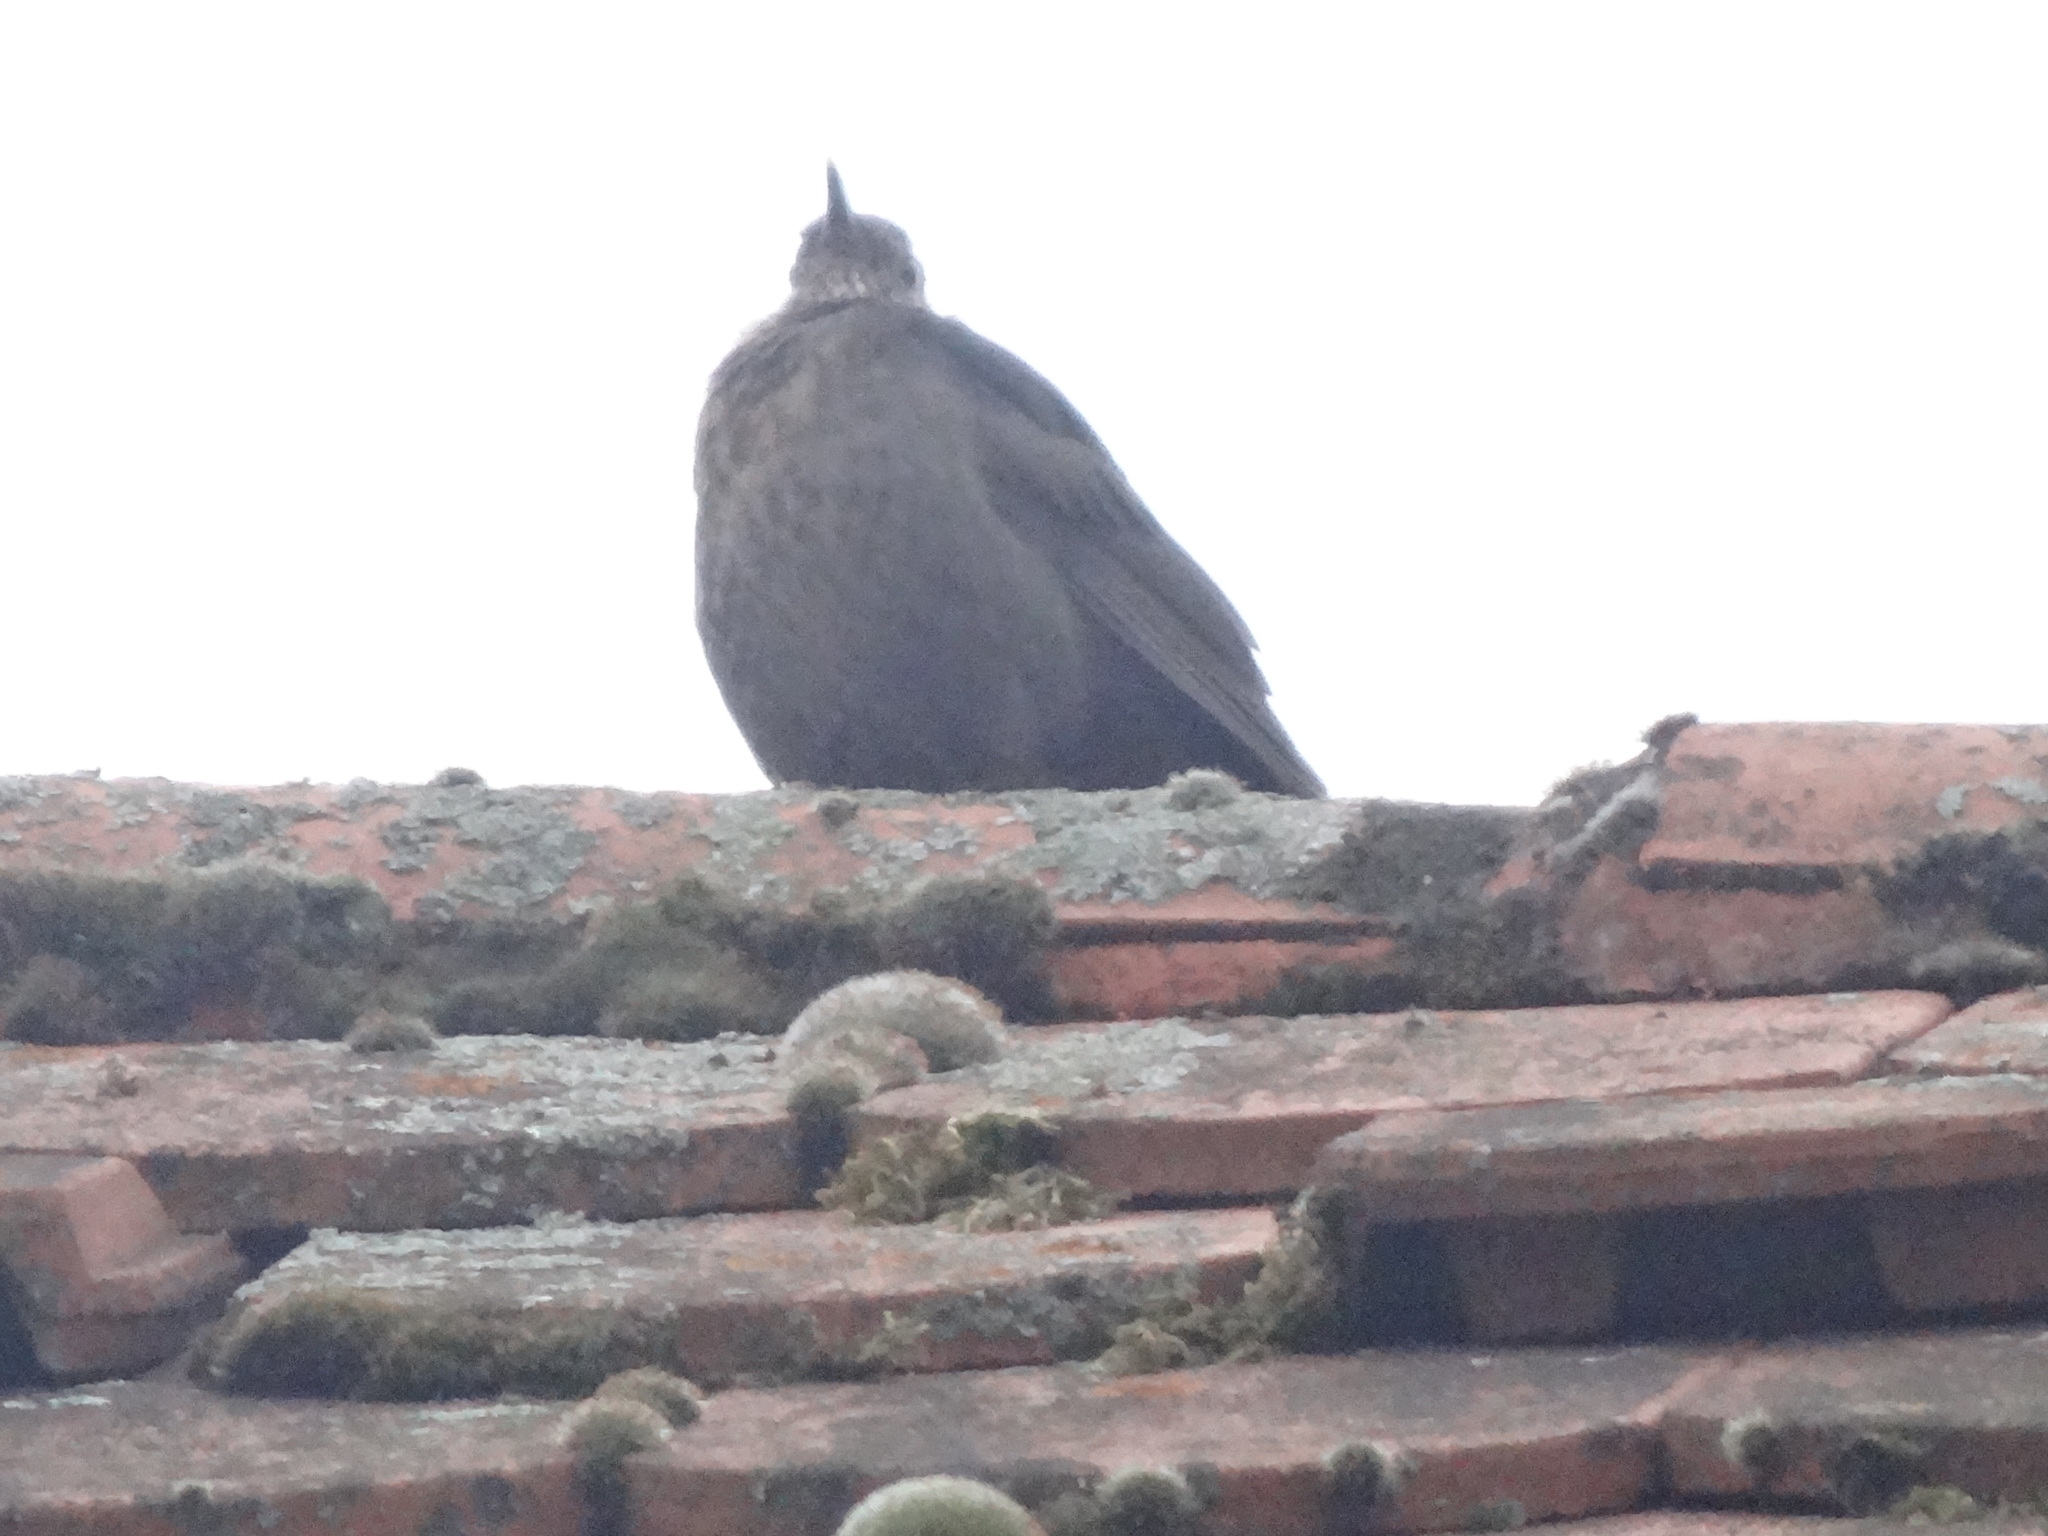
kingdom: Animalia
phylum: Chordata
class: Aves
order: Passeriformes
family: Turdidae
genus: Turdus
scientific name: Turdus merula
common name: Common blackbird
